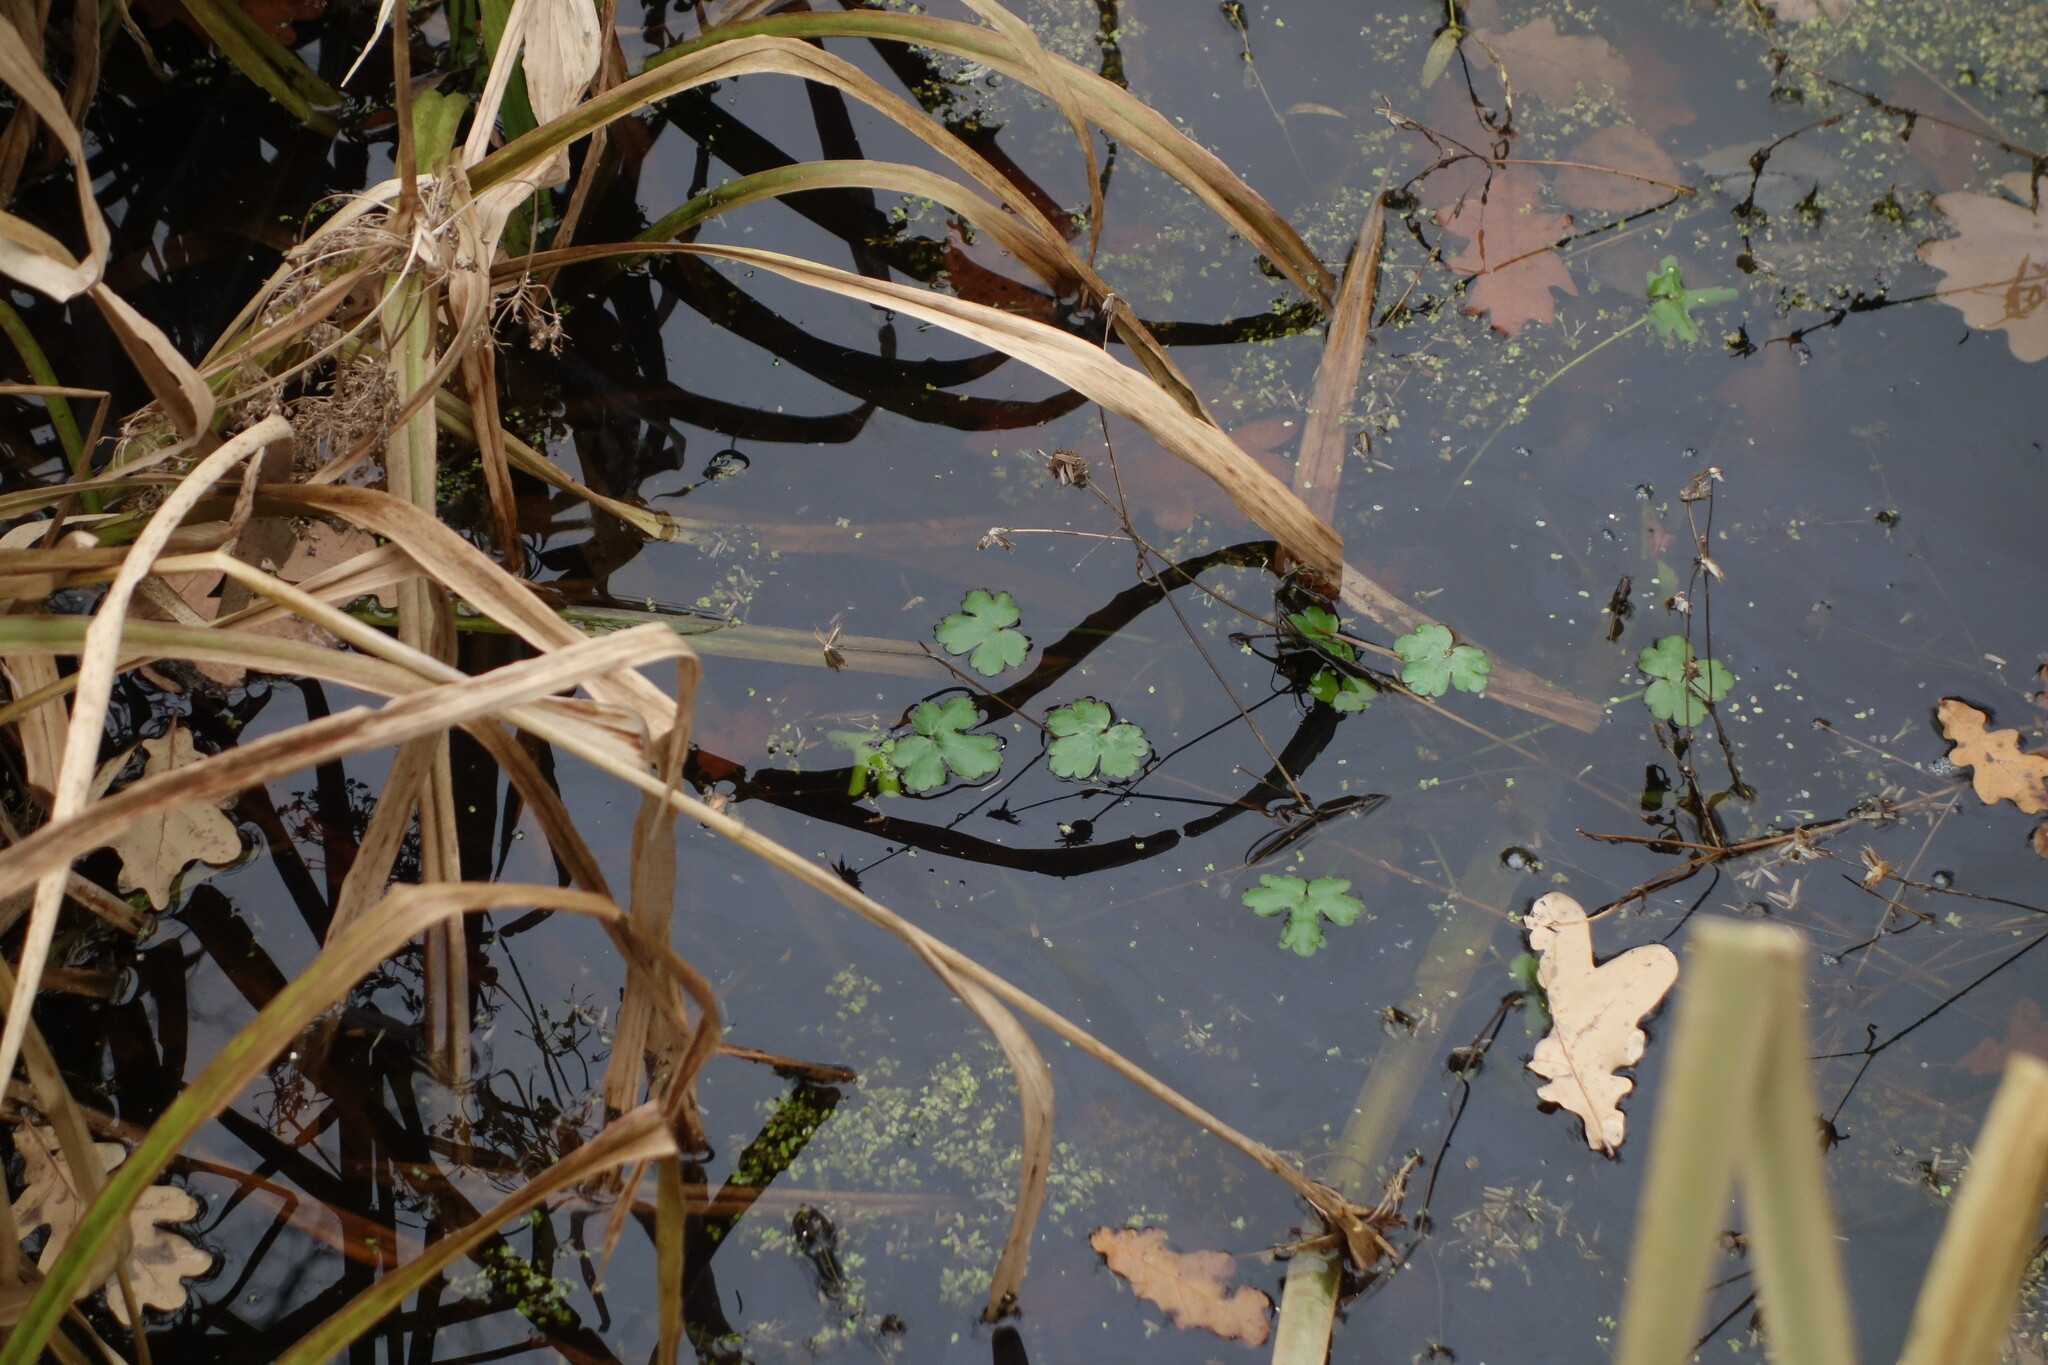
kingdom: Plantae
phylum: Tracheophyta
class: Magnoliopsida
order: Ranunculales
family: Ranunculaceae
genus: Ranunculus
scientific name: Ranunculus sceleratus
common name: Celery-leaved buttercup
